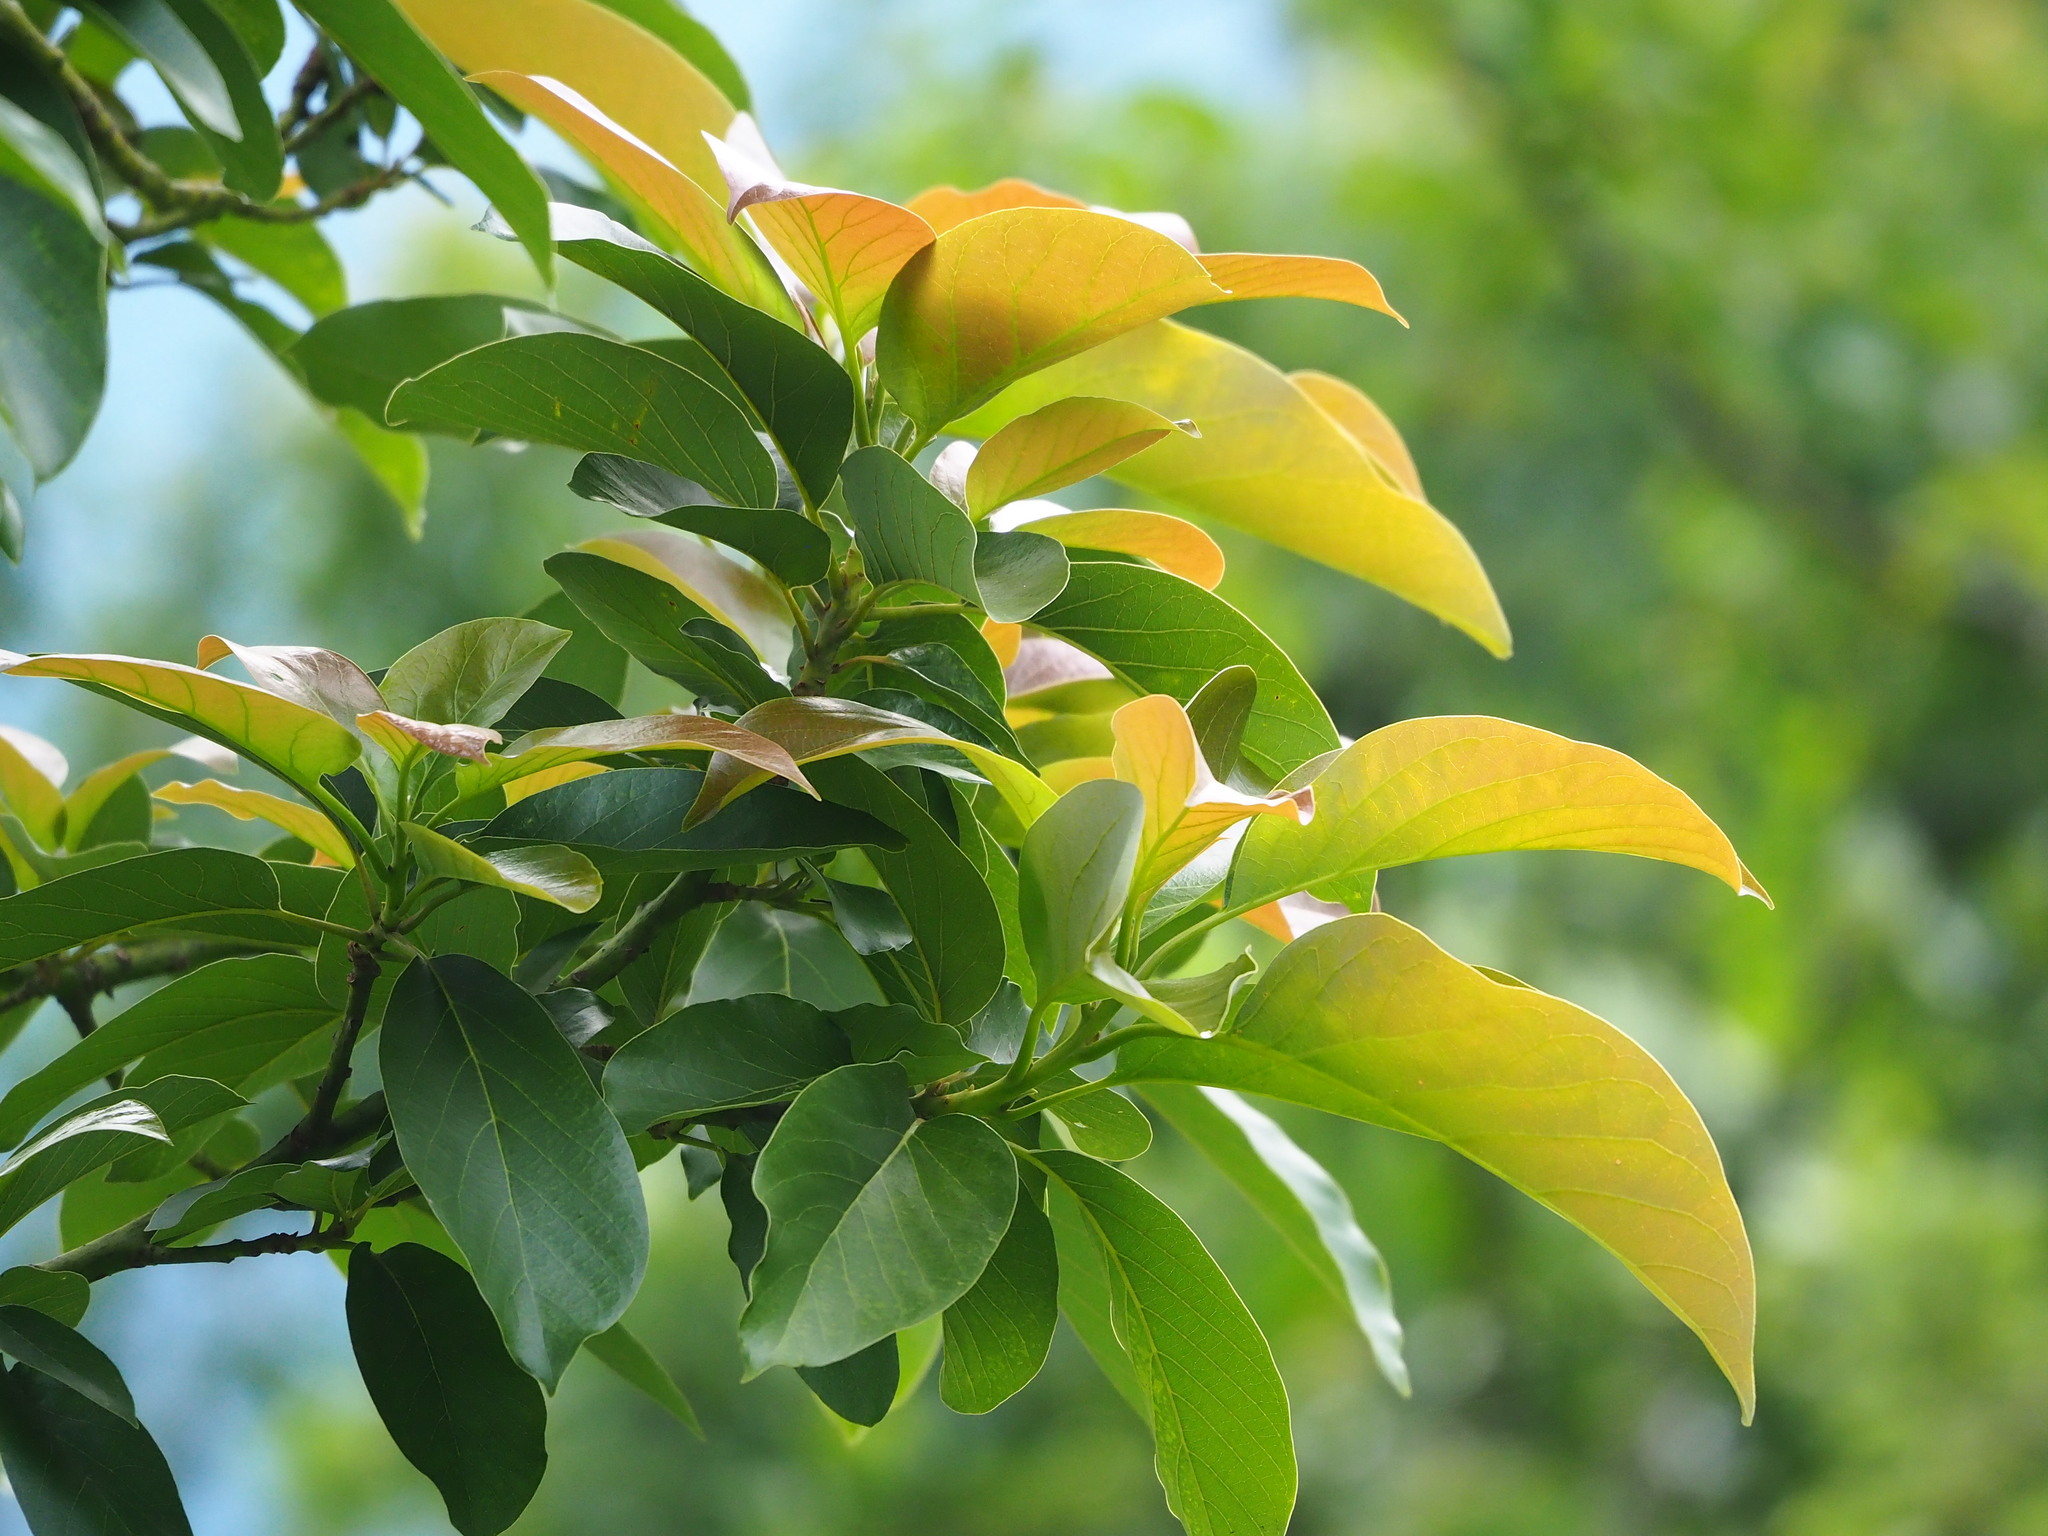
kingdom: Plantae
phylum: Tracheophyta
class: Magnoliopsida
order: Myrtales
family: Myrtaceae
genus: Syzygium
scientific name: Syzygium samarangense
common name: Semarang rose-apple
